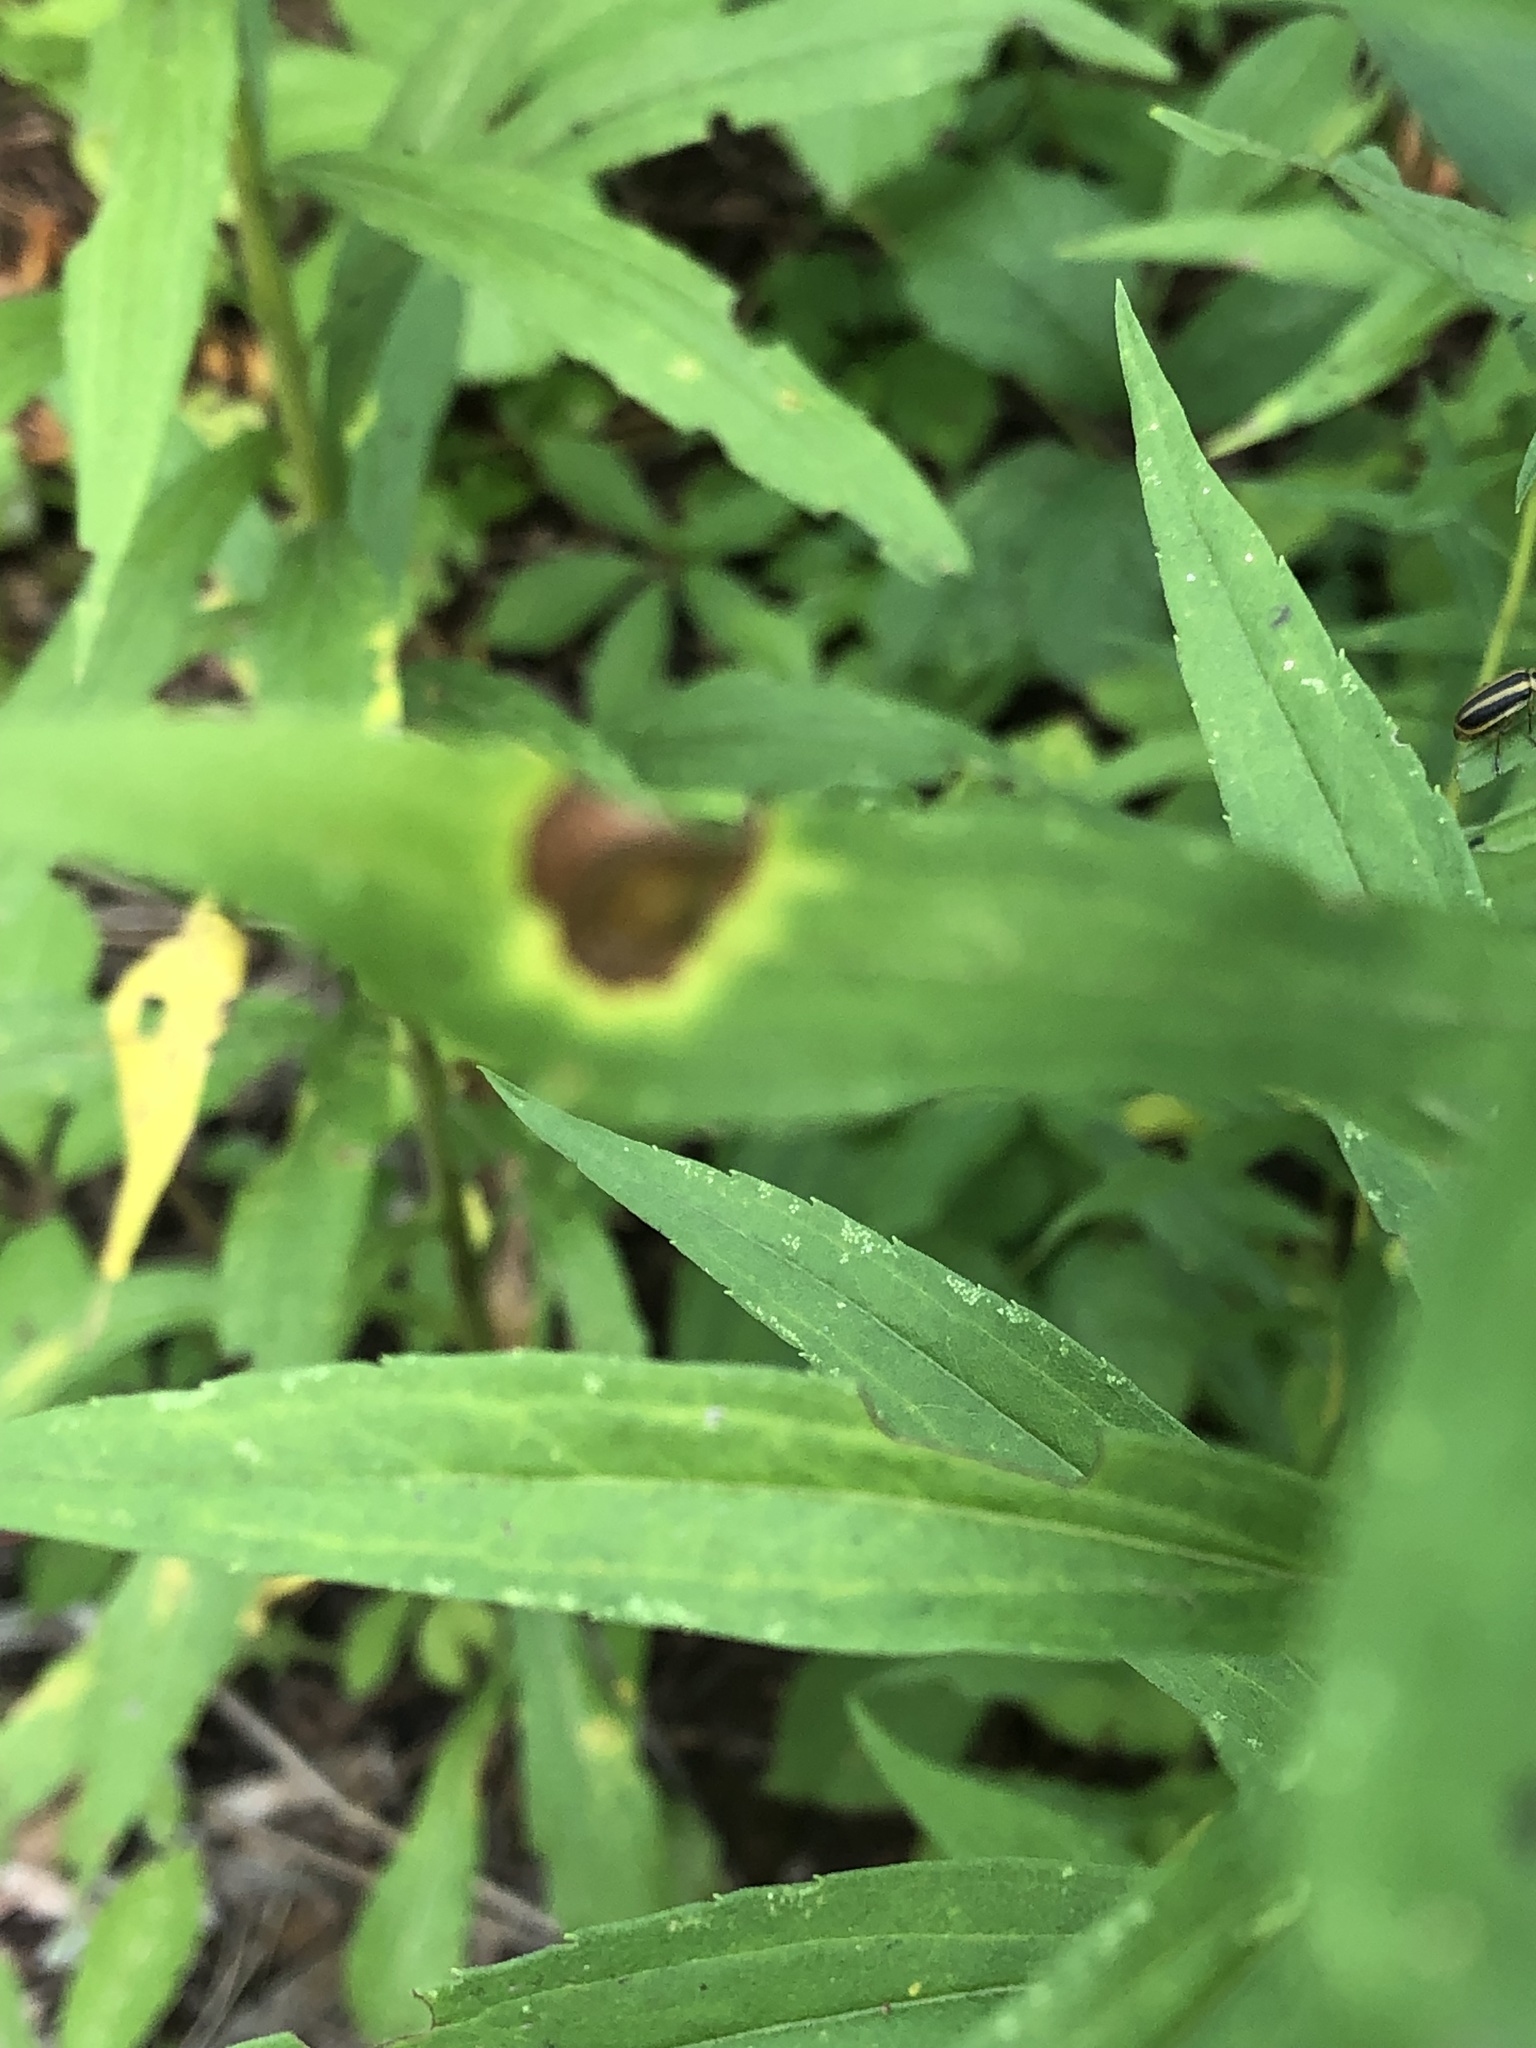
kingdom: Animalia
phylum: Arthropoda
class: Insecta
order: Diptera
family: Cecidomyiidae
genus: Asteromyia
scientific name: Asteromyia carbonifera
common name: Carbonifera goldenrod gall midge
